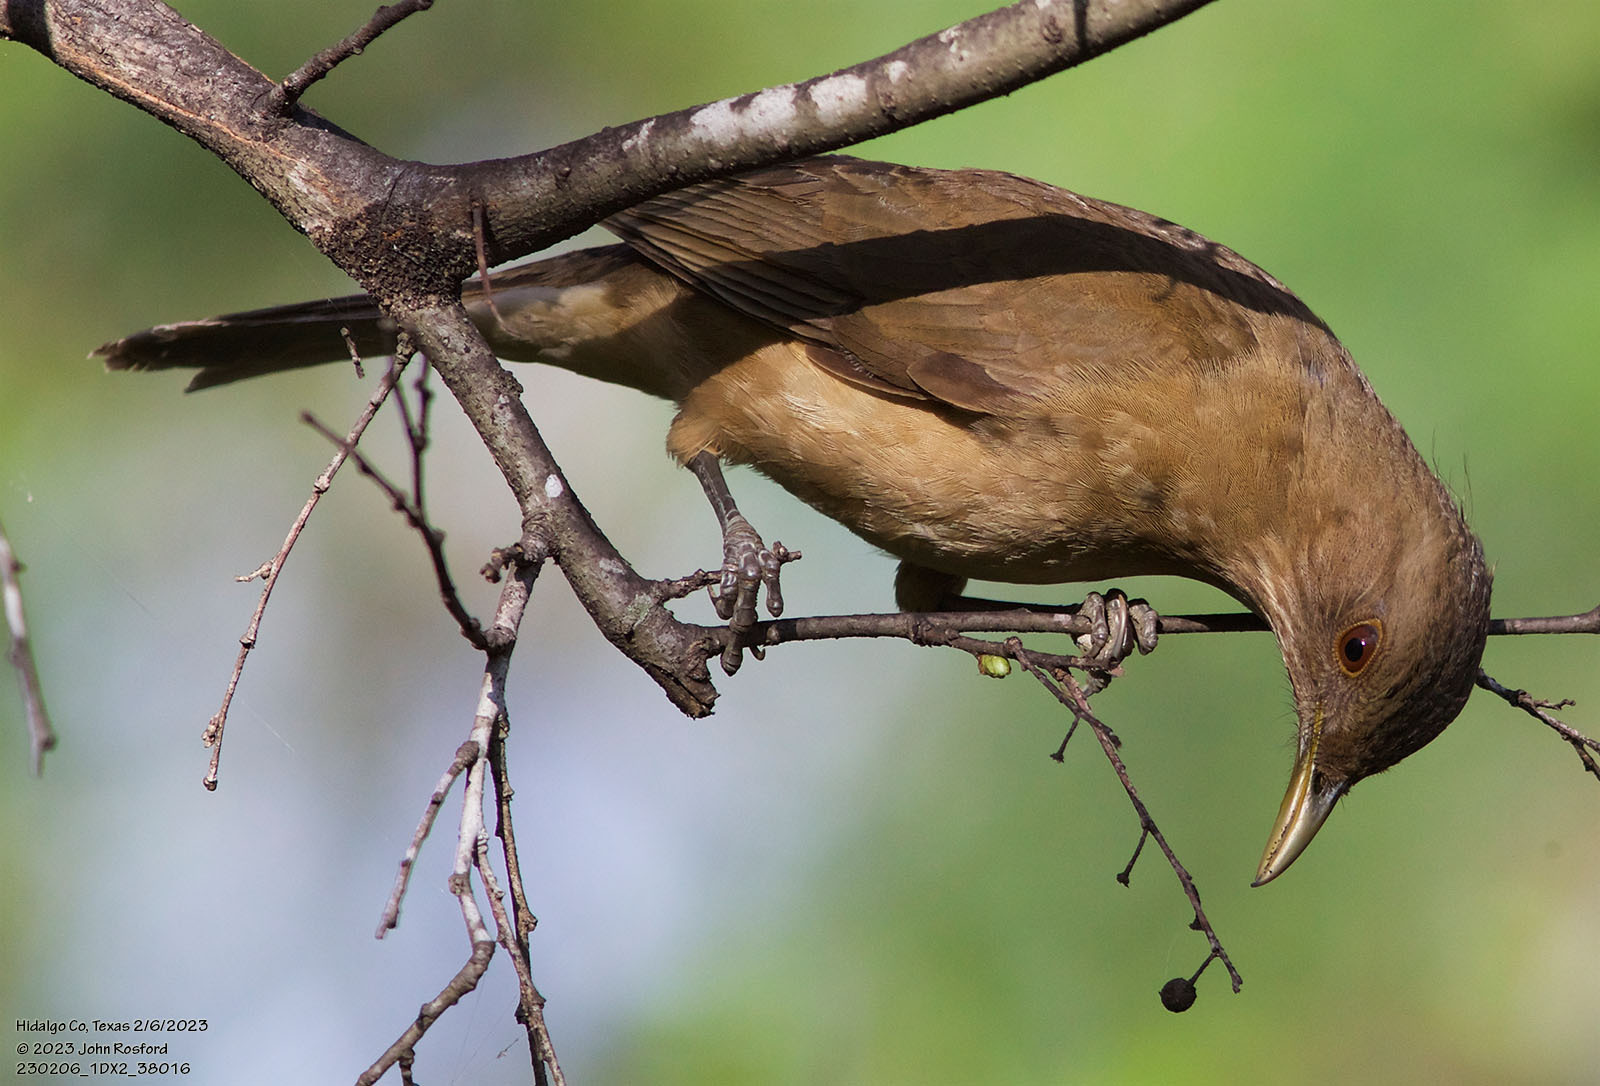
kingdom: Animalia
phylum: Chordata
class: Aves
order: Passeriformes
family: Turdidae
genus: Turdus
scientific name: Turdus grayi
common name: Clay-colored thrush
